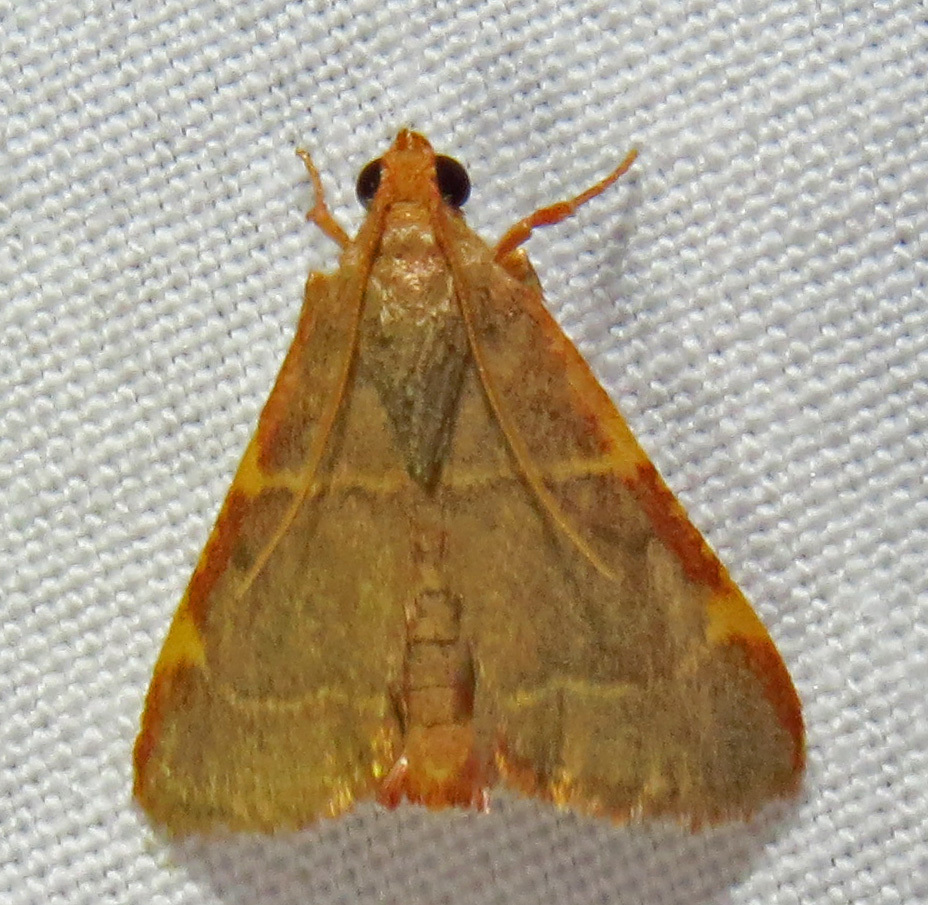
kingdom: Animalia
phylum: Arthropoda
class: Insecta
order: Lepidoptera
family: Pyralidae
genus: Hypsopygia
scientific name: Hypsopygia binodulalis
